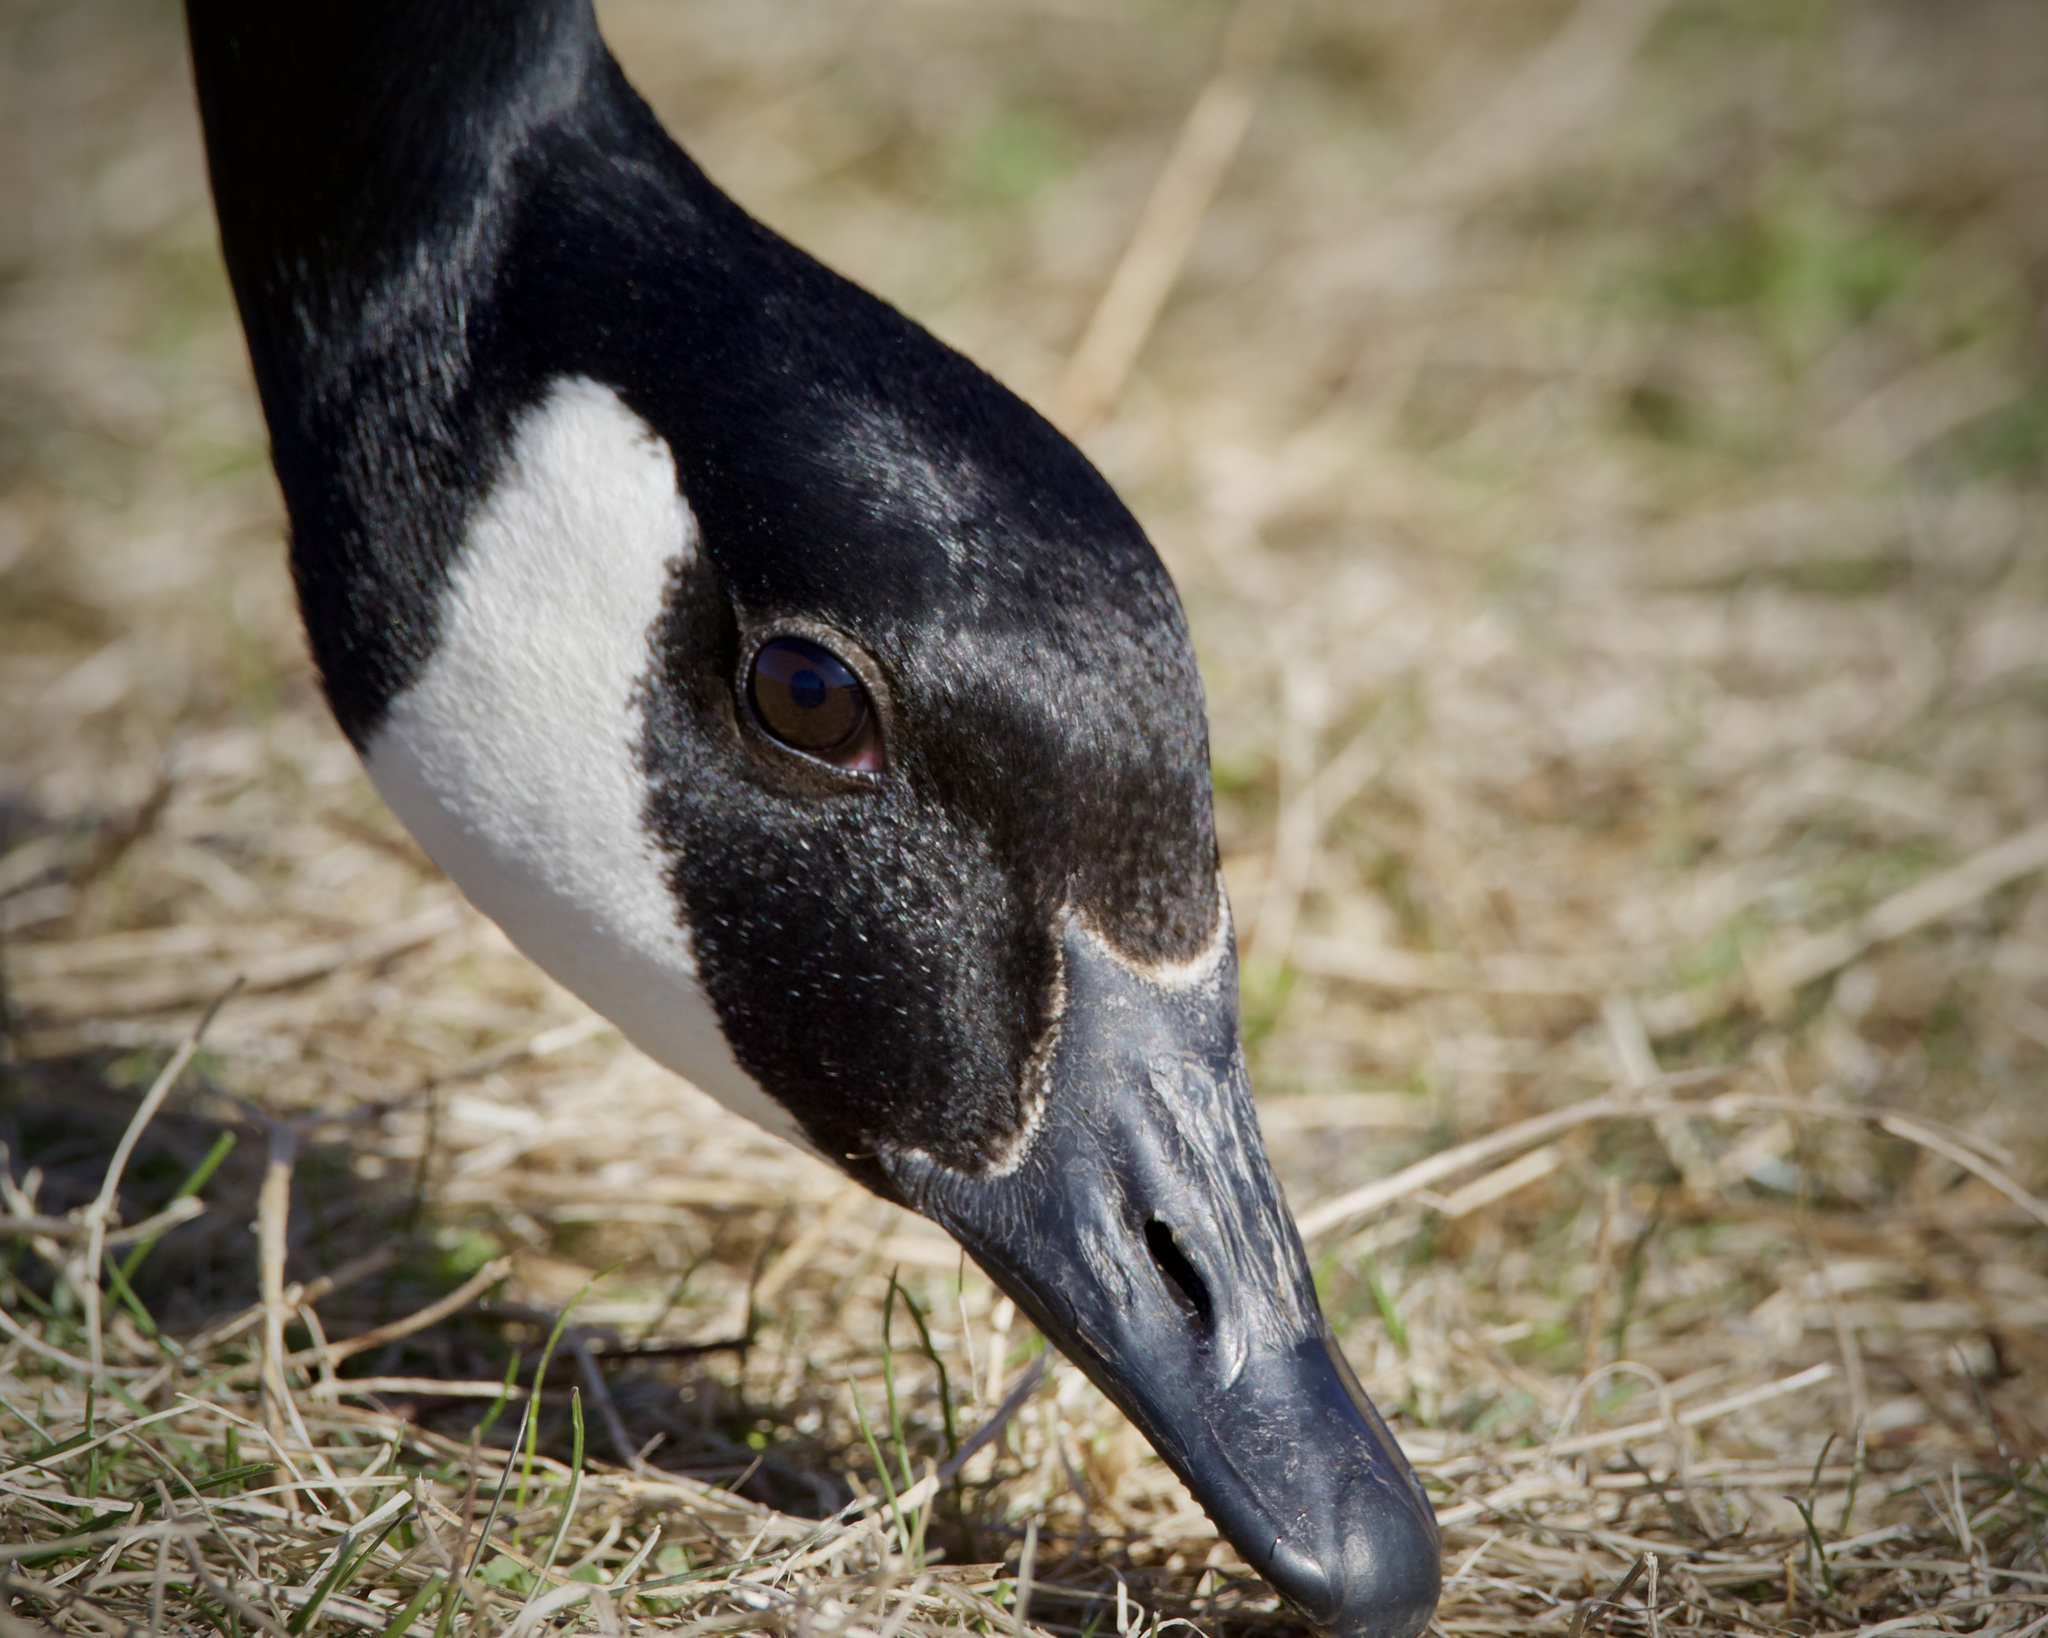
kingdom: Animalia
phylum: Chordata
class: Aves
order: Anseriformes
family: Anatidae
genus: Branta
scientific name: Branta canadensis
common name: Canada goose
